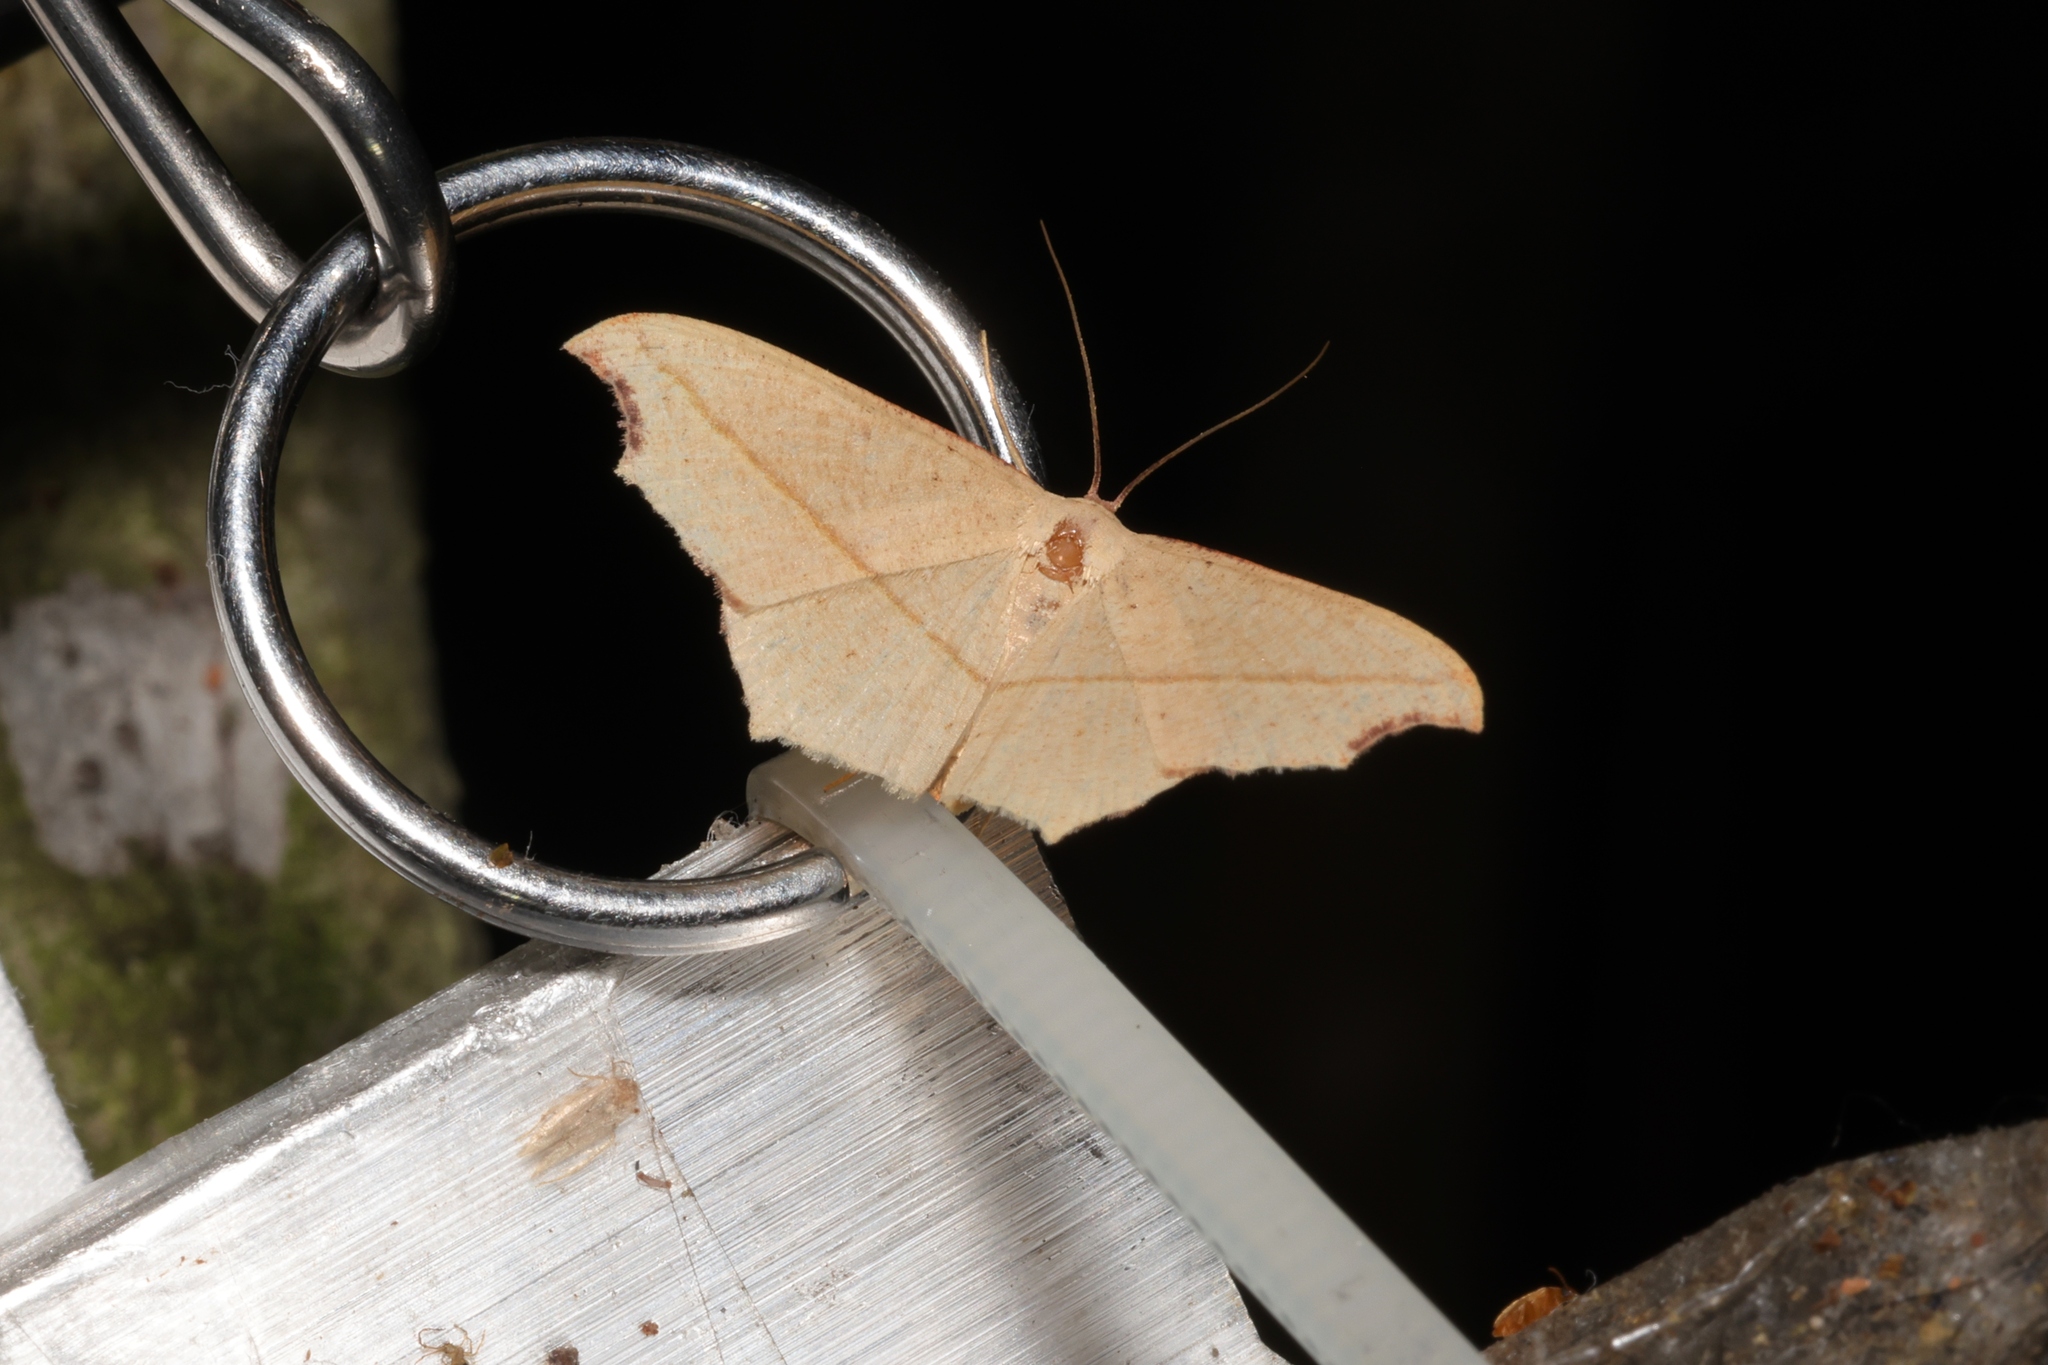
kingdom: Animalia
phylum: Arthropoda
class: Insecta
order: Lepidoptera
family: Geometridae
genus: Traminda
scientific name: Traminda aventiaria
